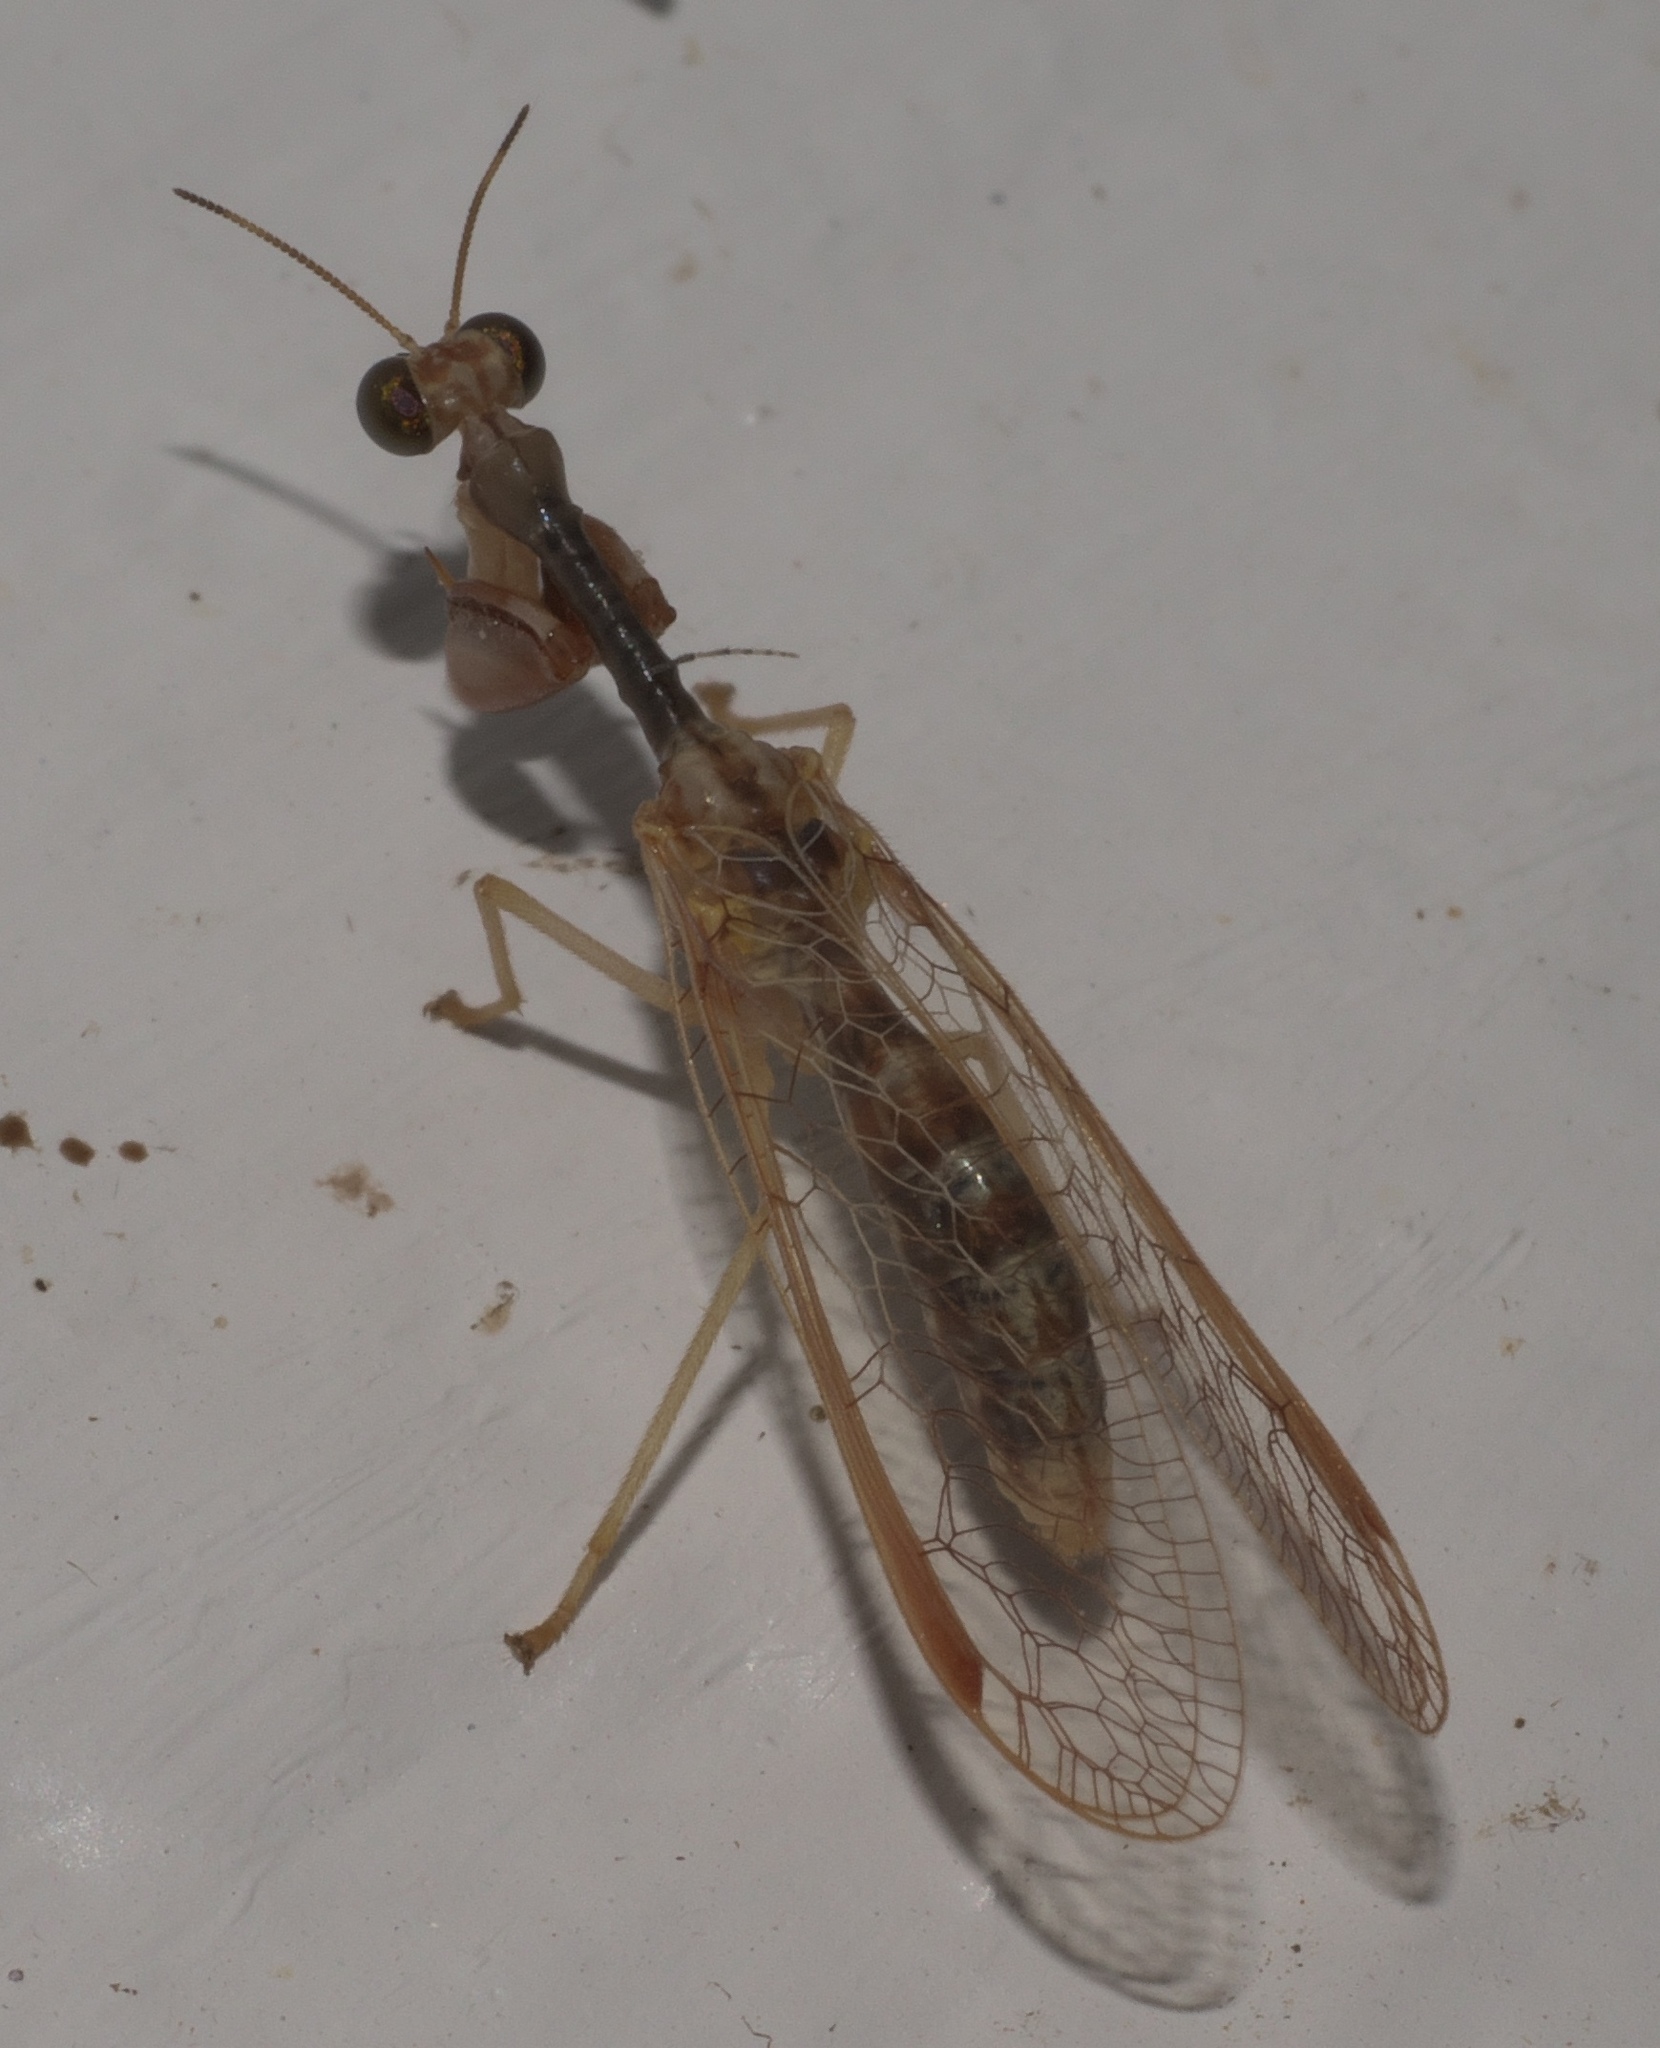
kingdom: Animalia
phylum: Arthropoda
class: Insecta
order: Neuroptera
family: Mantispidae
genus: Dicromantispa
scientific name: Dicromantispa sayi
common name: Say's mantidfly
